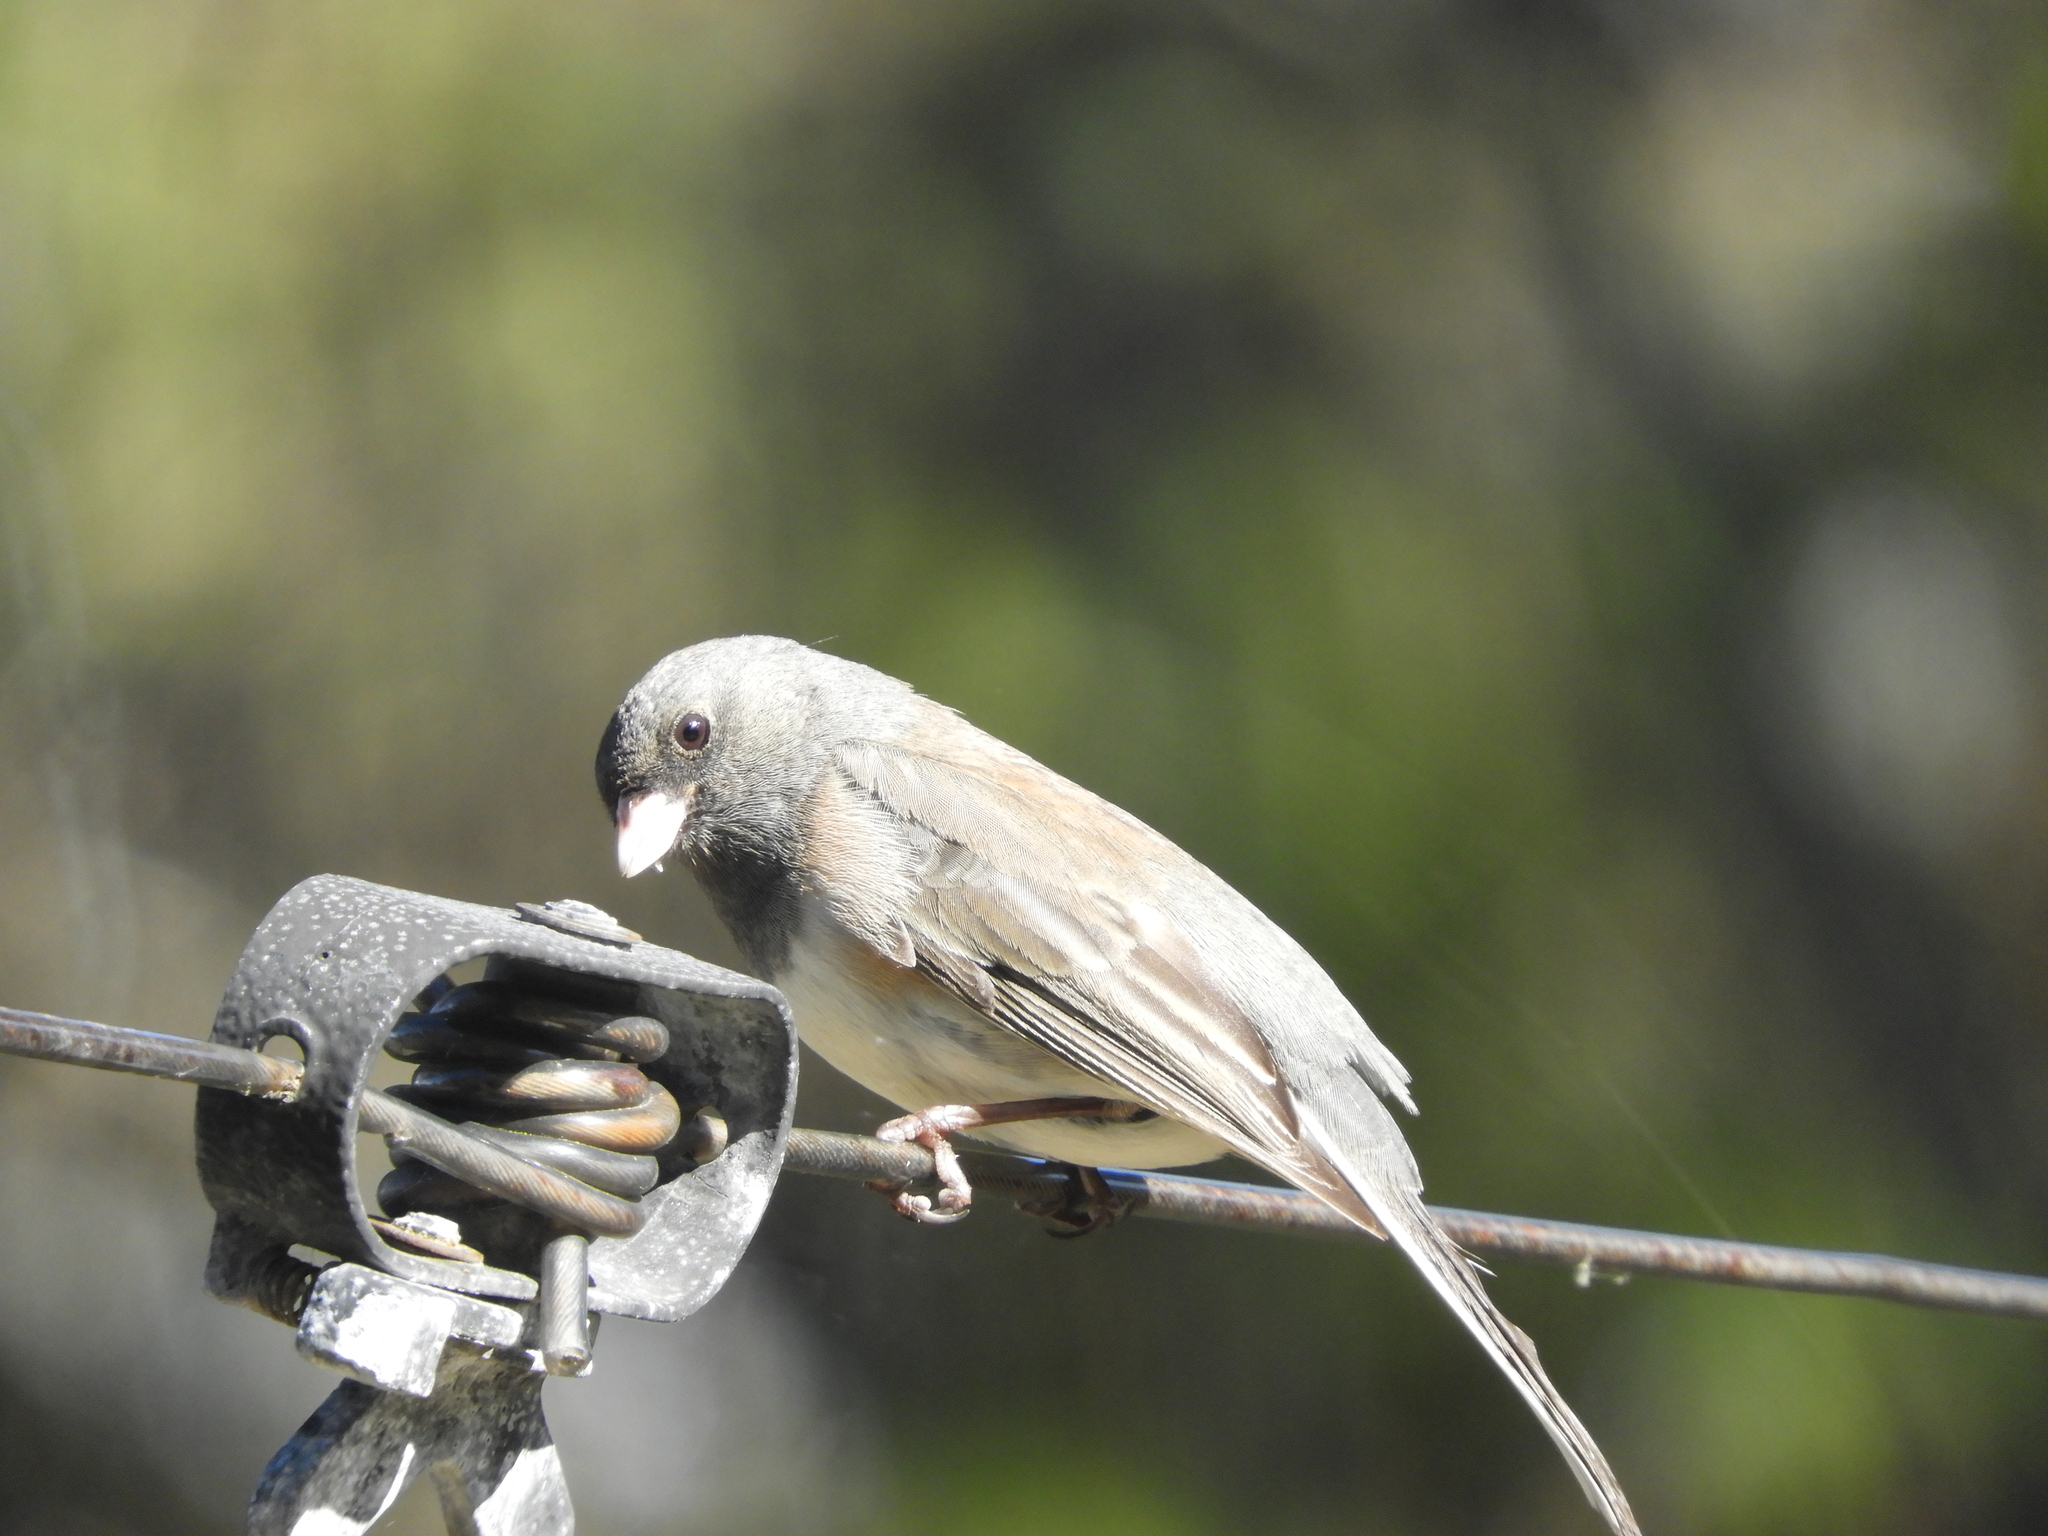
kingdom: Animalia
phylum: Chordata
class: Aves
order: Passeriformes
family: Passerellidae
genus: Junco
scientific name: Junco hyemalis
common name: Dark-eyed junco
